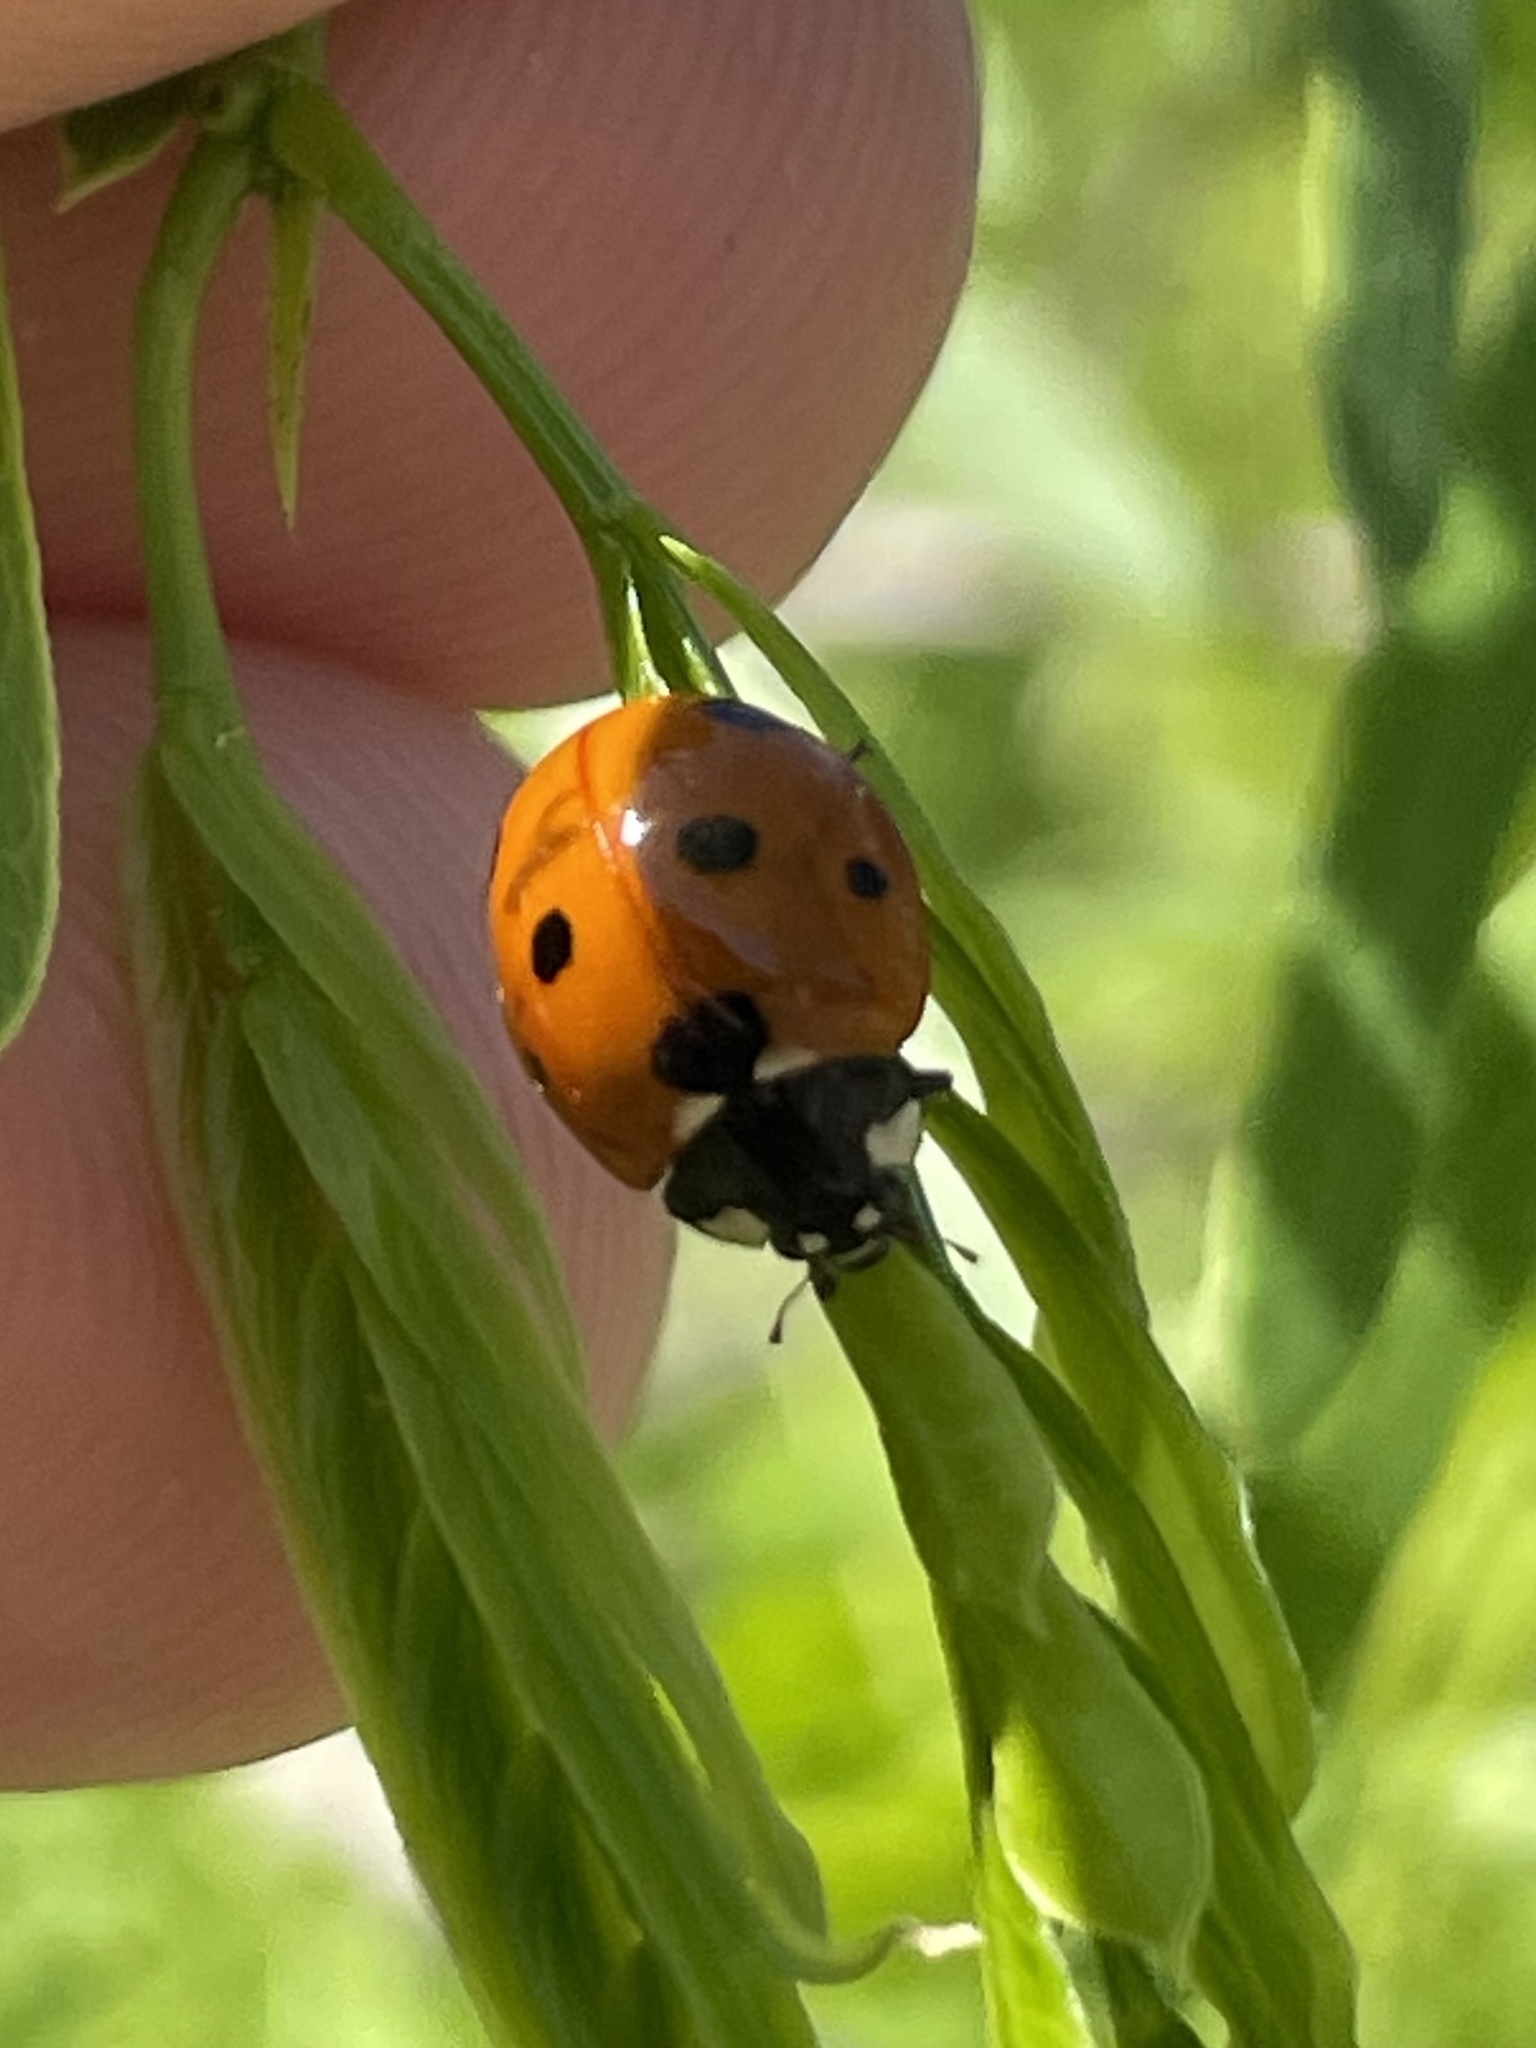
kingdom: Animalia
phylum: Arthropoda
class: Insecta
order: Coleoptera
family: Coccinellidae
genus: Coccinella
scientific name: Coccinella septempunctata
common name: Sevenspotted lady beetle
